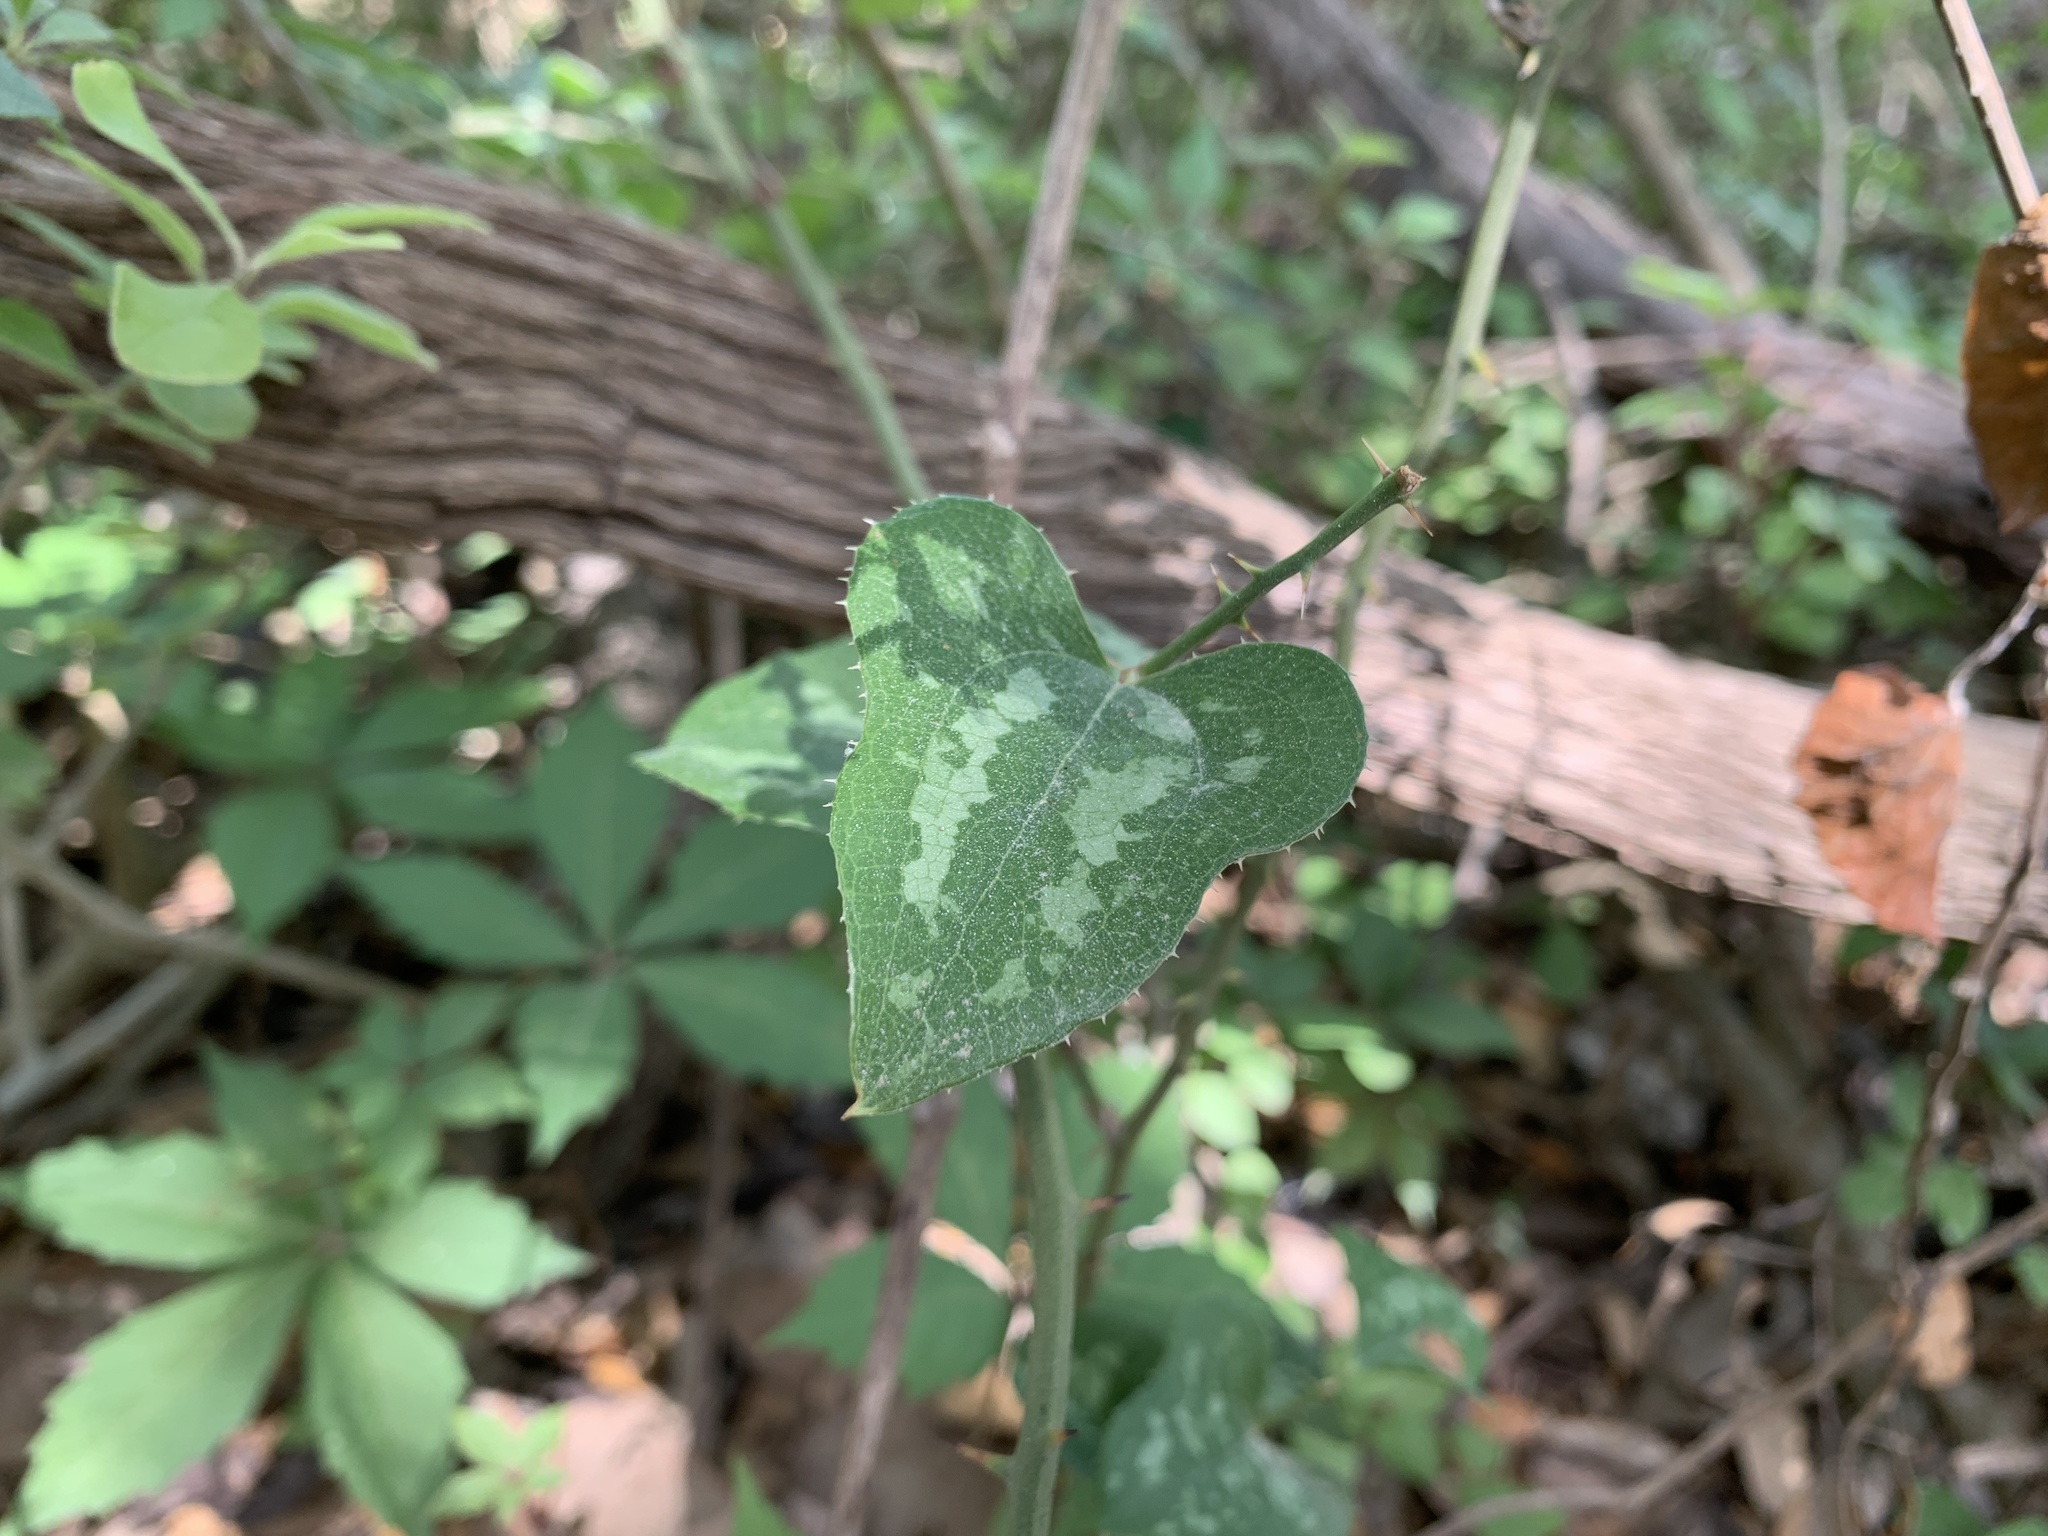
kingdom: Plantae
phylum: Tracheophyta
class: Liliopsida
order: Liliales
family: Smilacaceae
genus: Smilax
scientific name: Smilax bona-nox
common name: Catbrier
